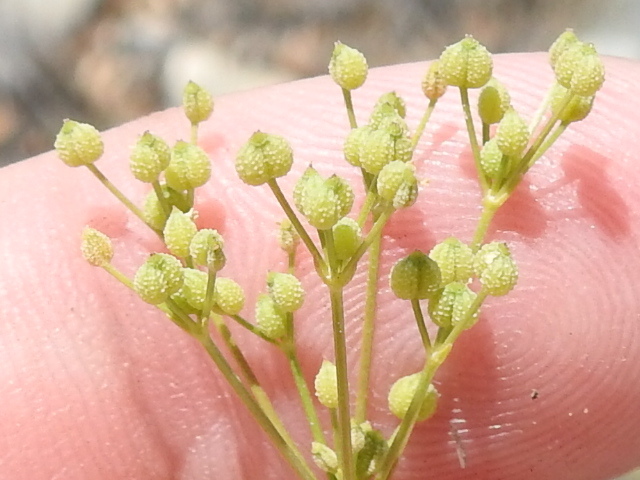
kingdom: Plantae
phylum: Tracheophyta
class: Magnoliopsida
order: Apiales
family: Apiaceae
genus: Spermolepis
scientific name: Spermolepis inermis
